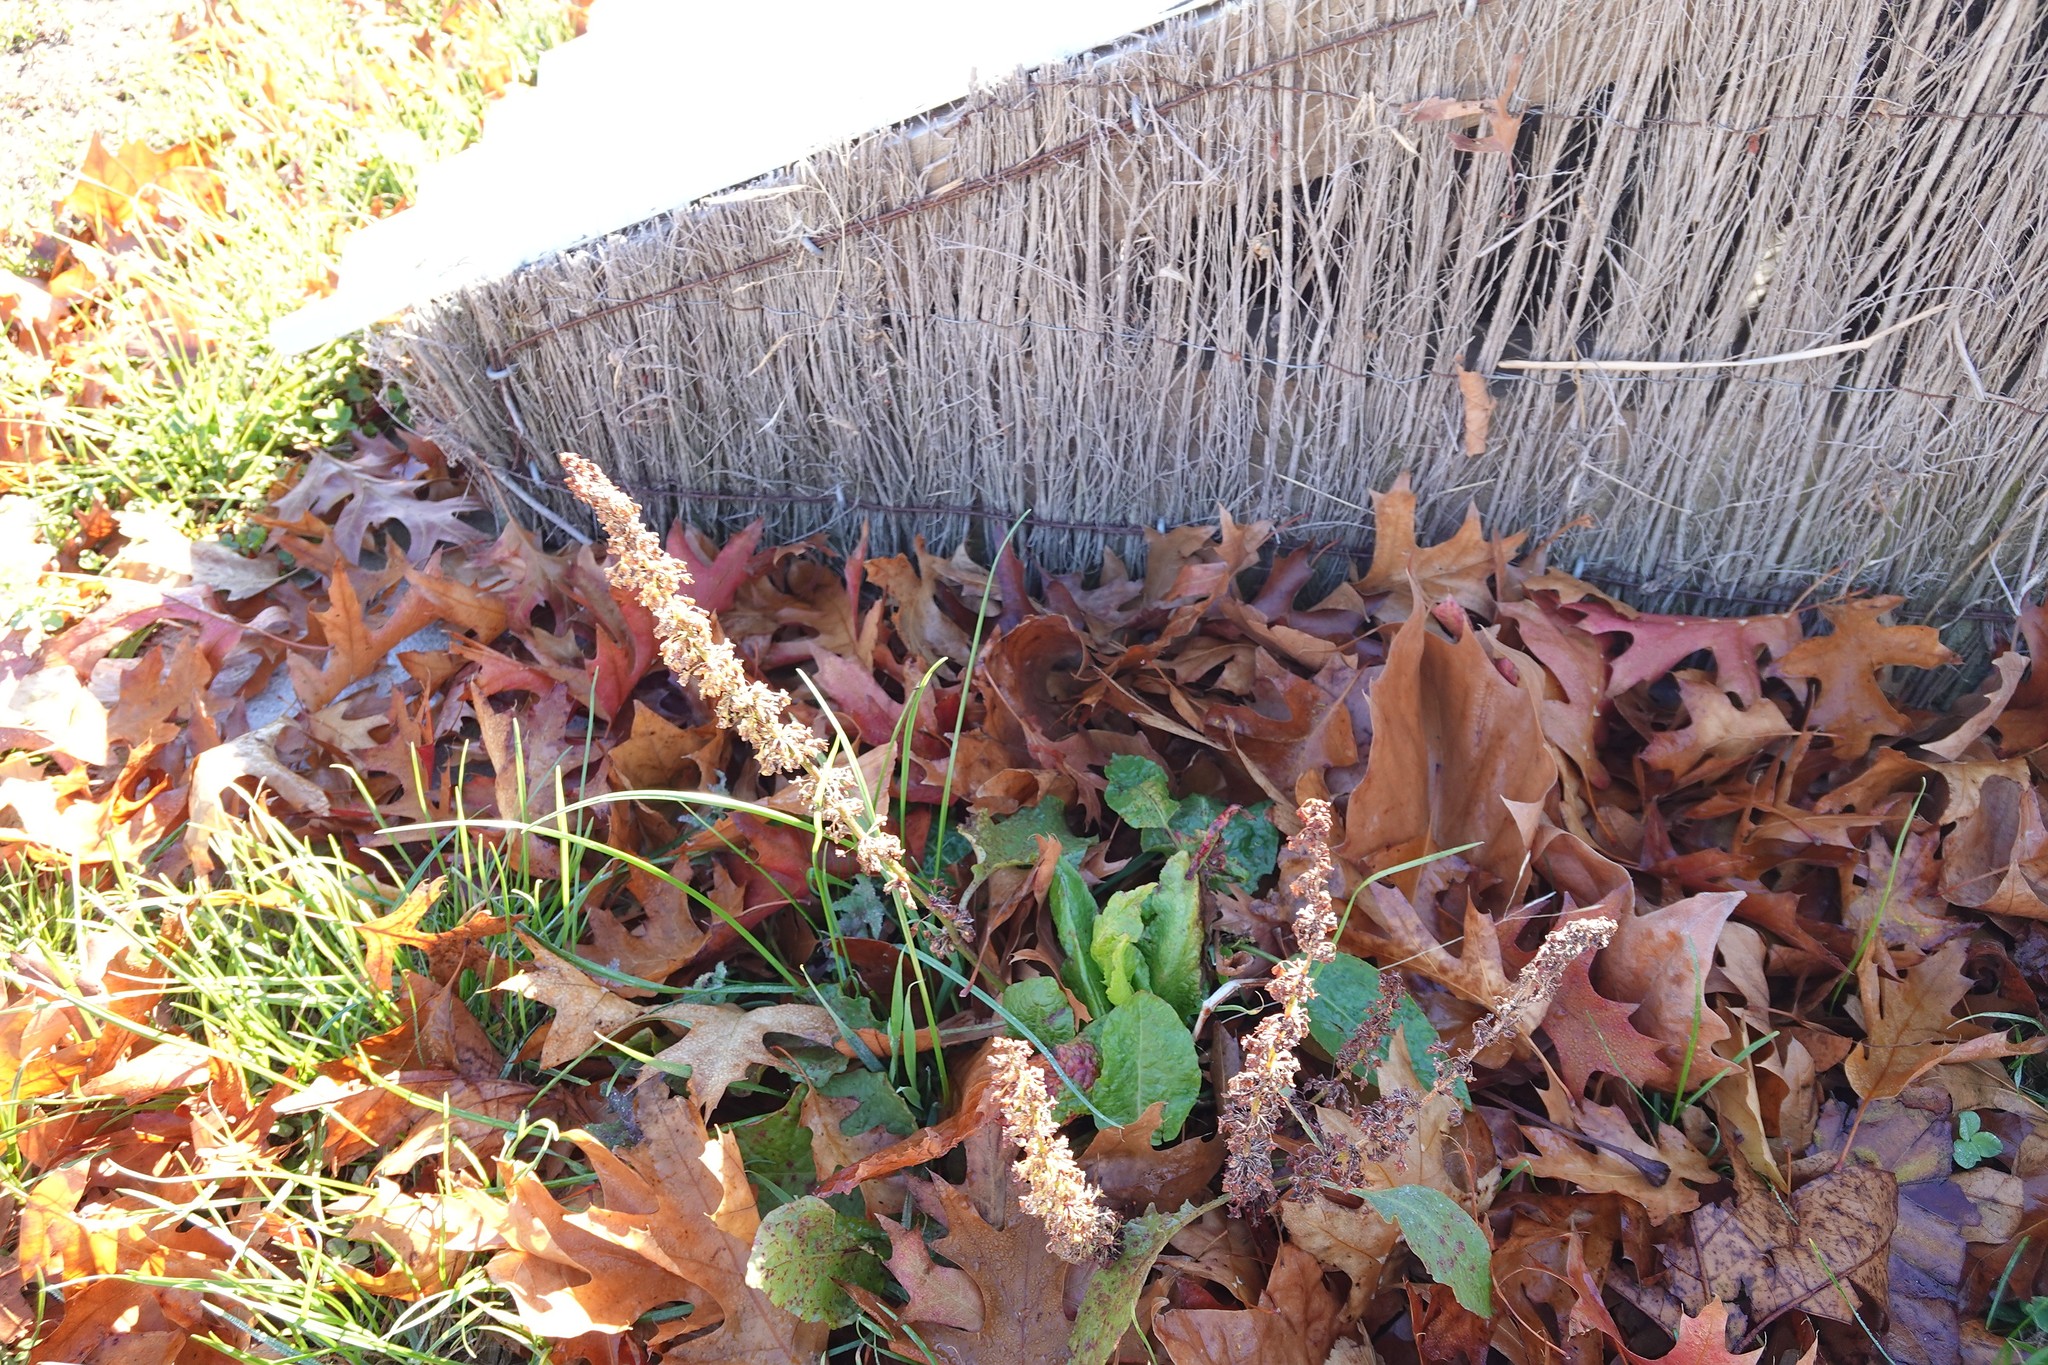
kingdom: Plantae
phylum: Tracheophyta
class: Magnoliopsida
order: Caryophyllales
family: Polygonaceae
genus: Rumex
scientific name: Rumex obtusifolius
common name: Bitter dock
